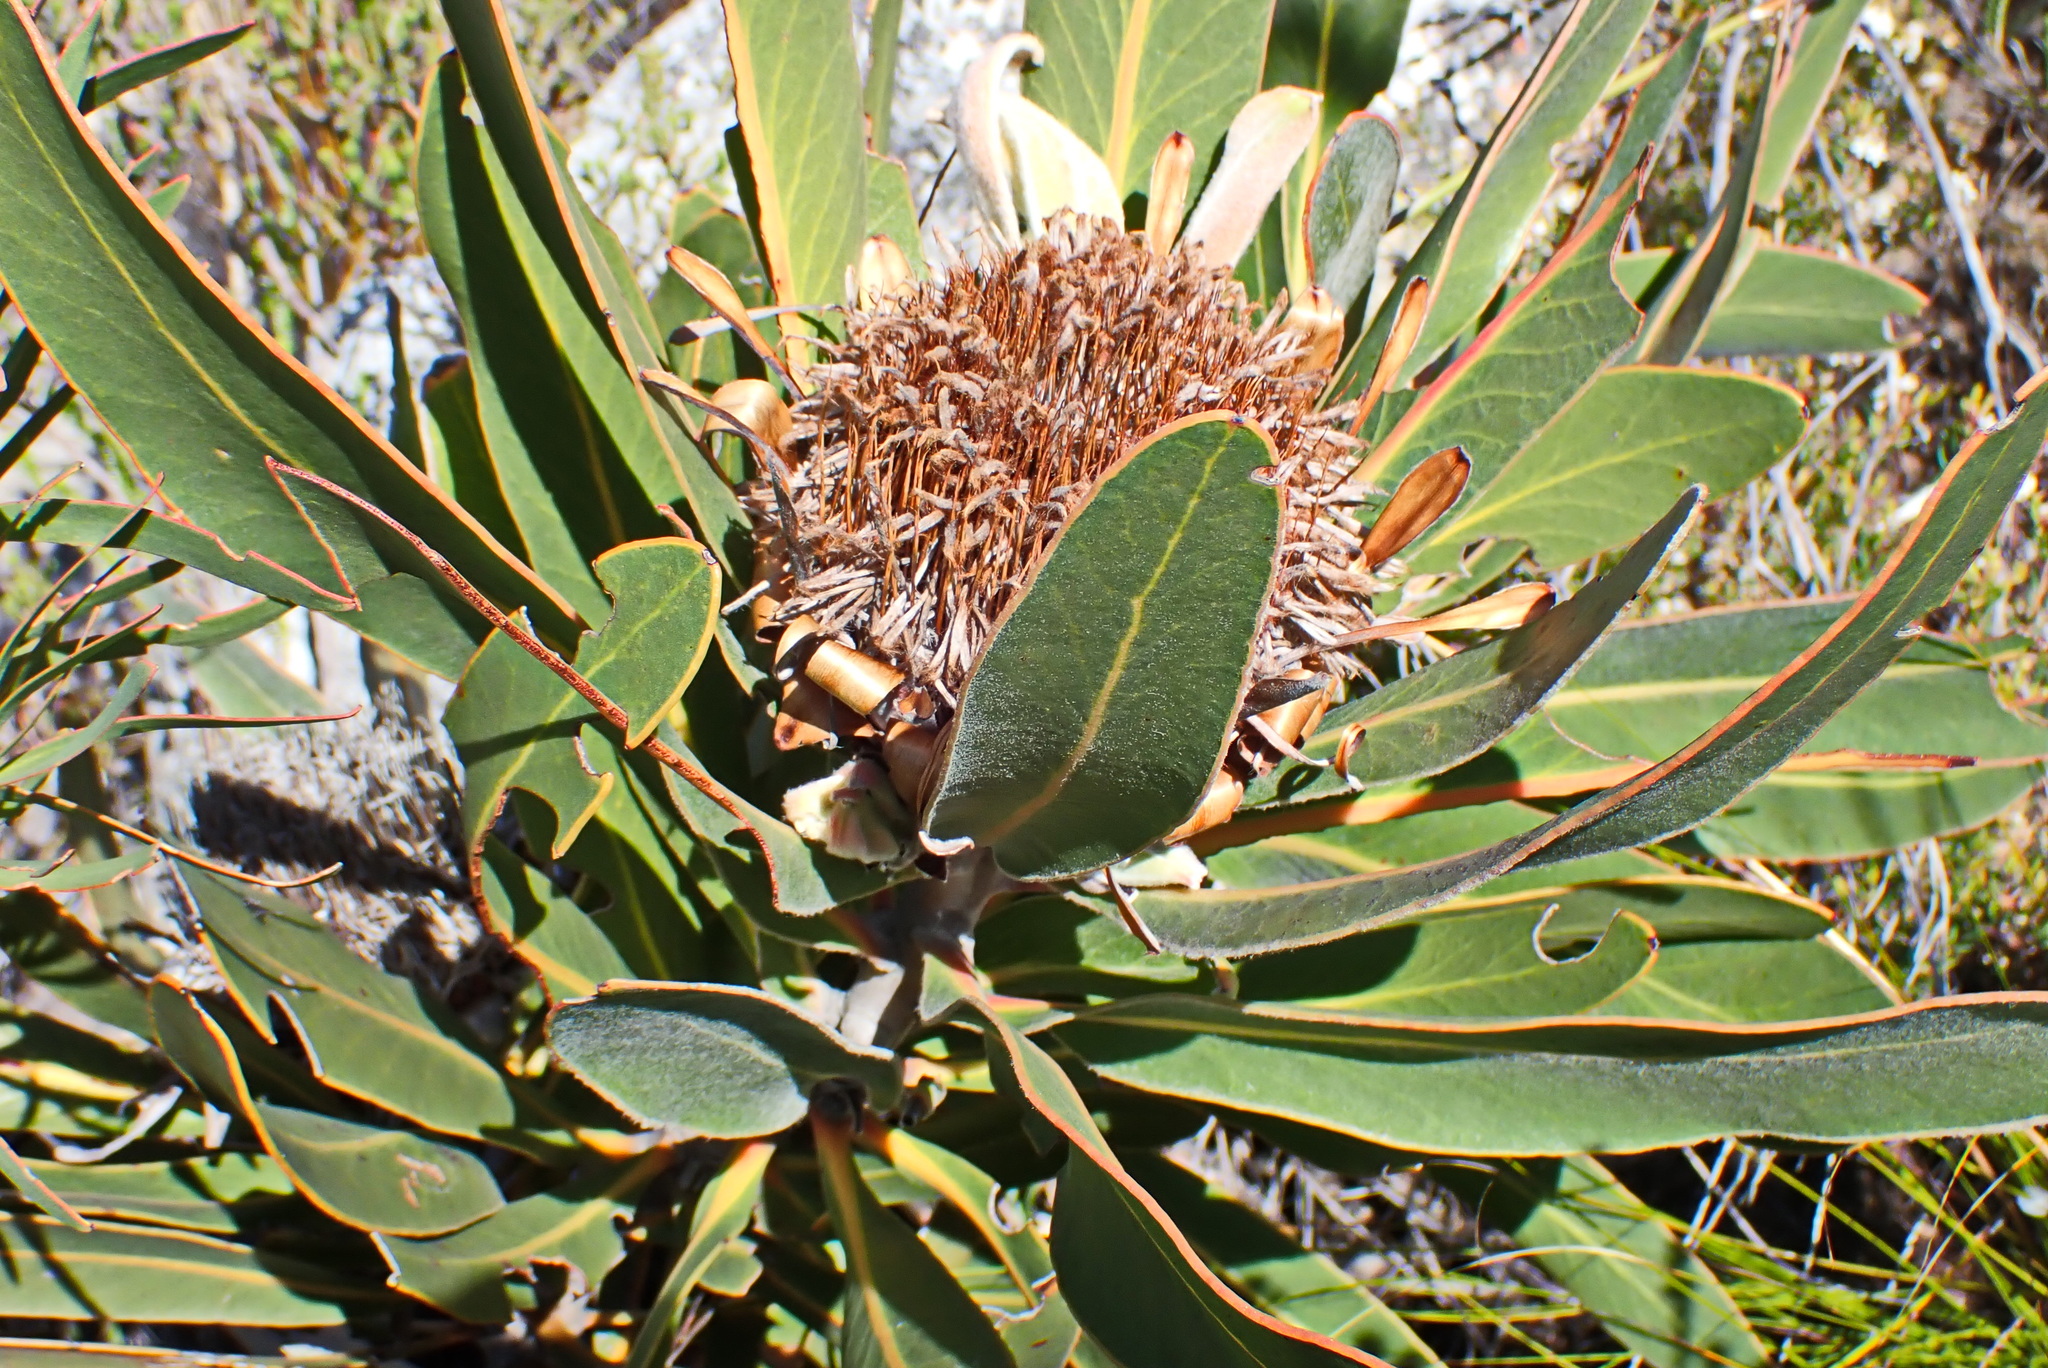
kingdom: Plantae
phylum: Tracheophyta
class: Magnoliopsida
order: Proteales
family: Proteaceae
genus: Protea
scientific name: Protea lorifolia
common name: Strap-leaved protea
